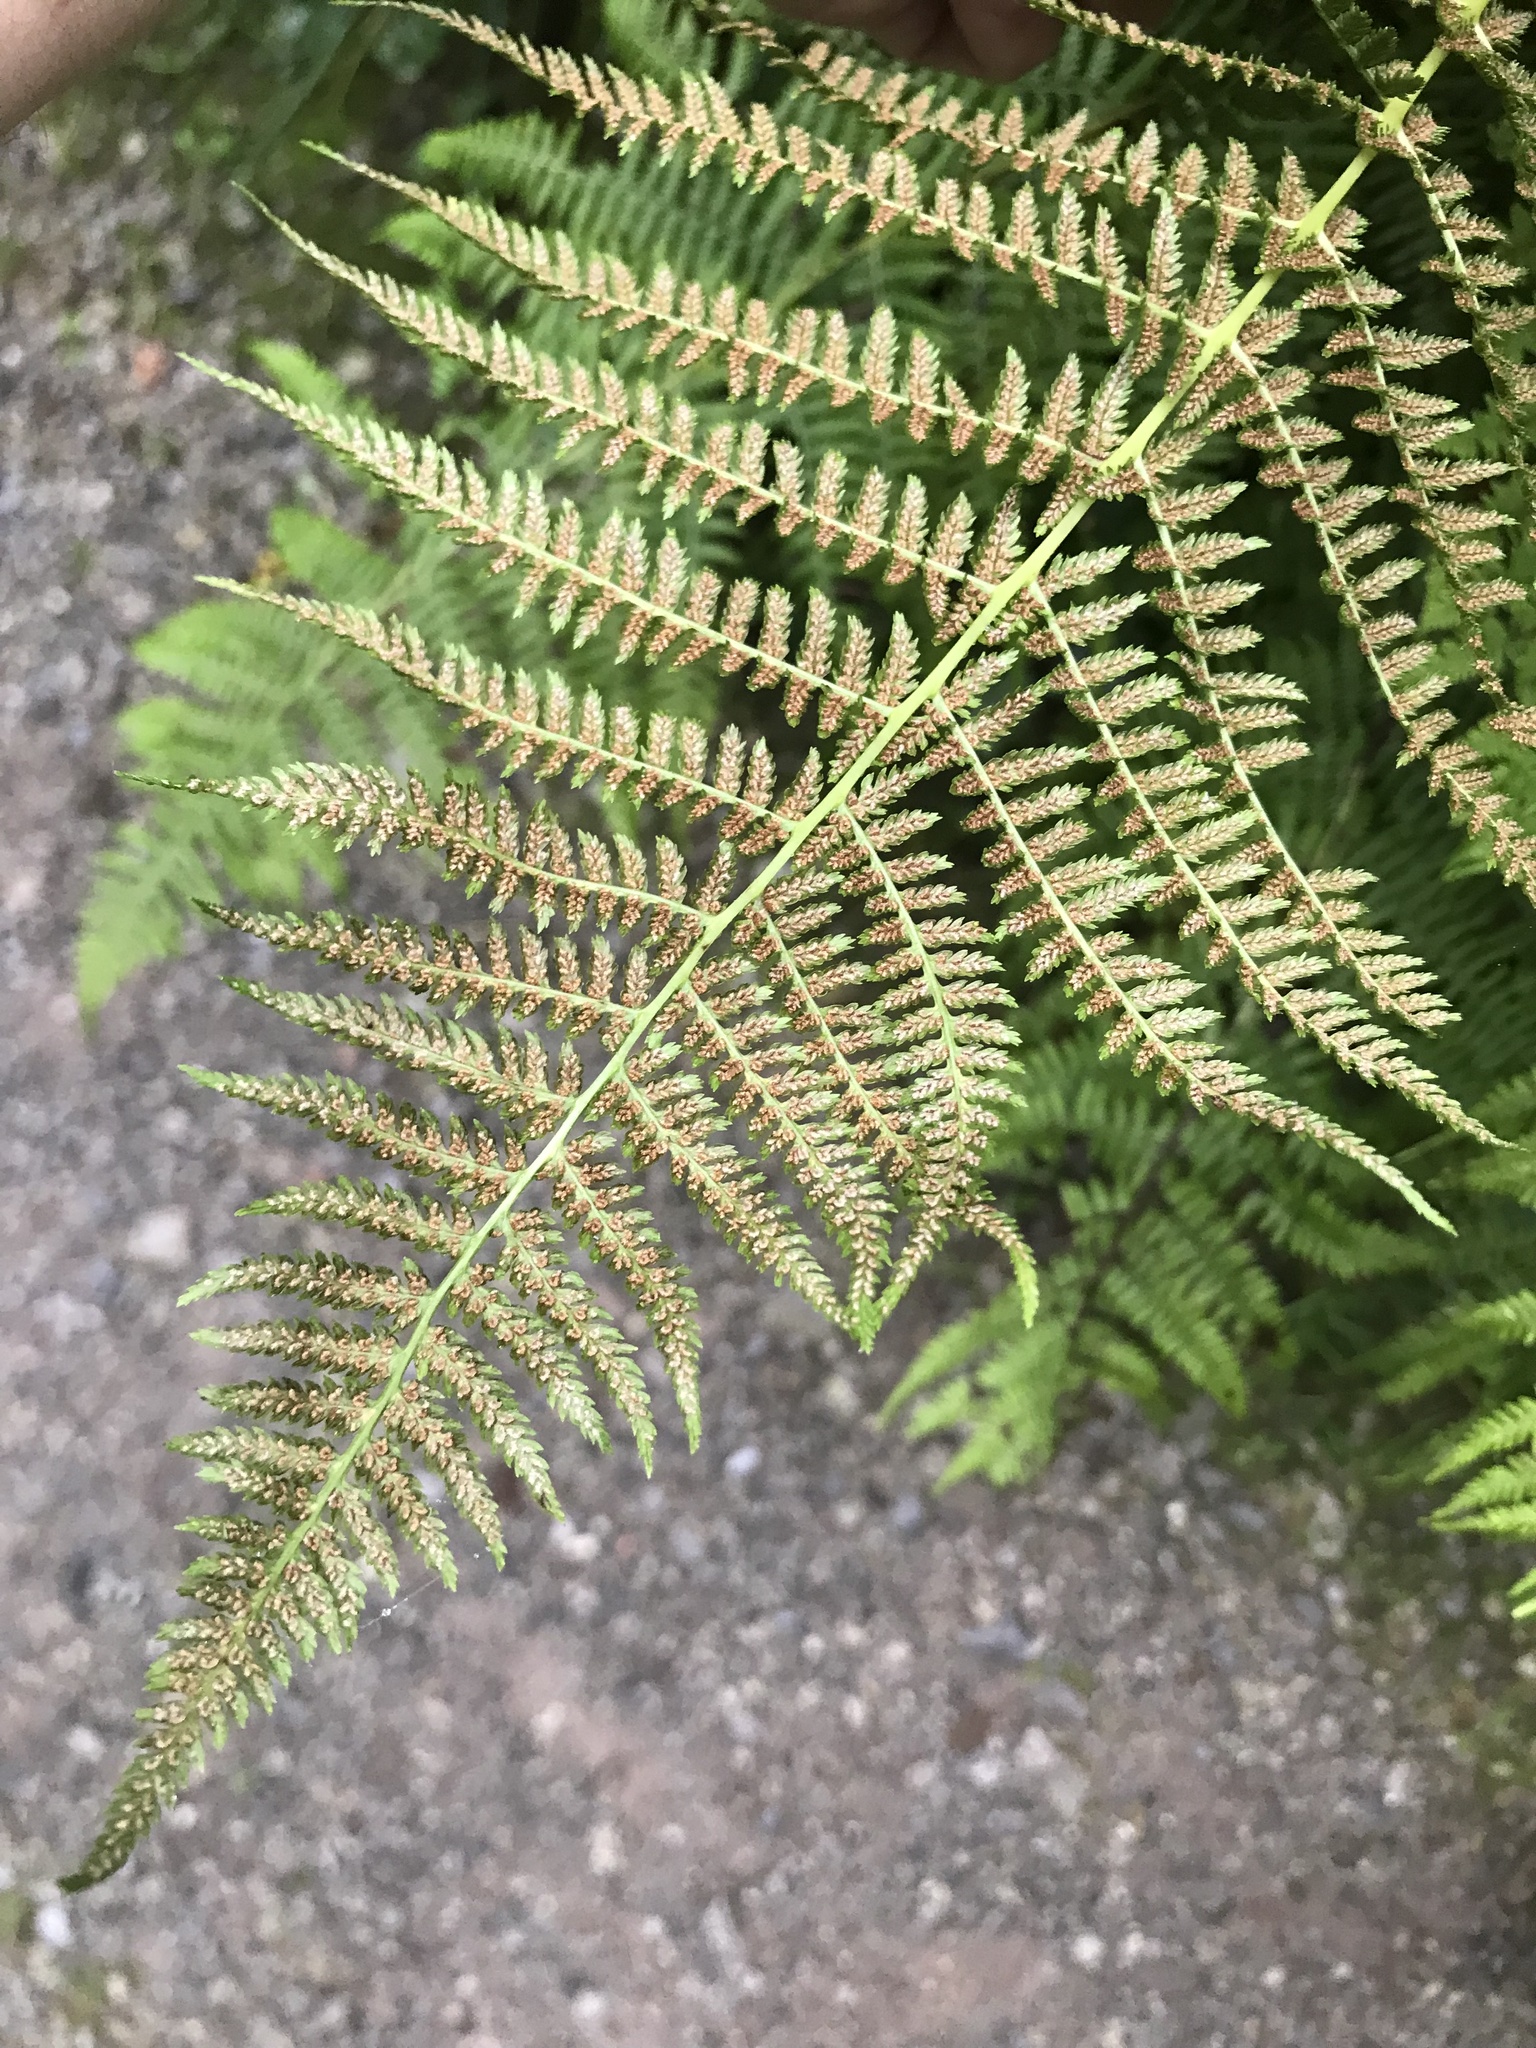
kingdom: Plantae
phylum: Tracheophyta
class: Polypodiopsida
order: Polypodiales
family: Athyriaceae
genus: Athyrium
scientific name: Athyrium filix-femina
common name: Lady fern
